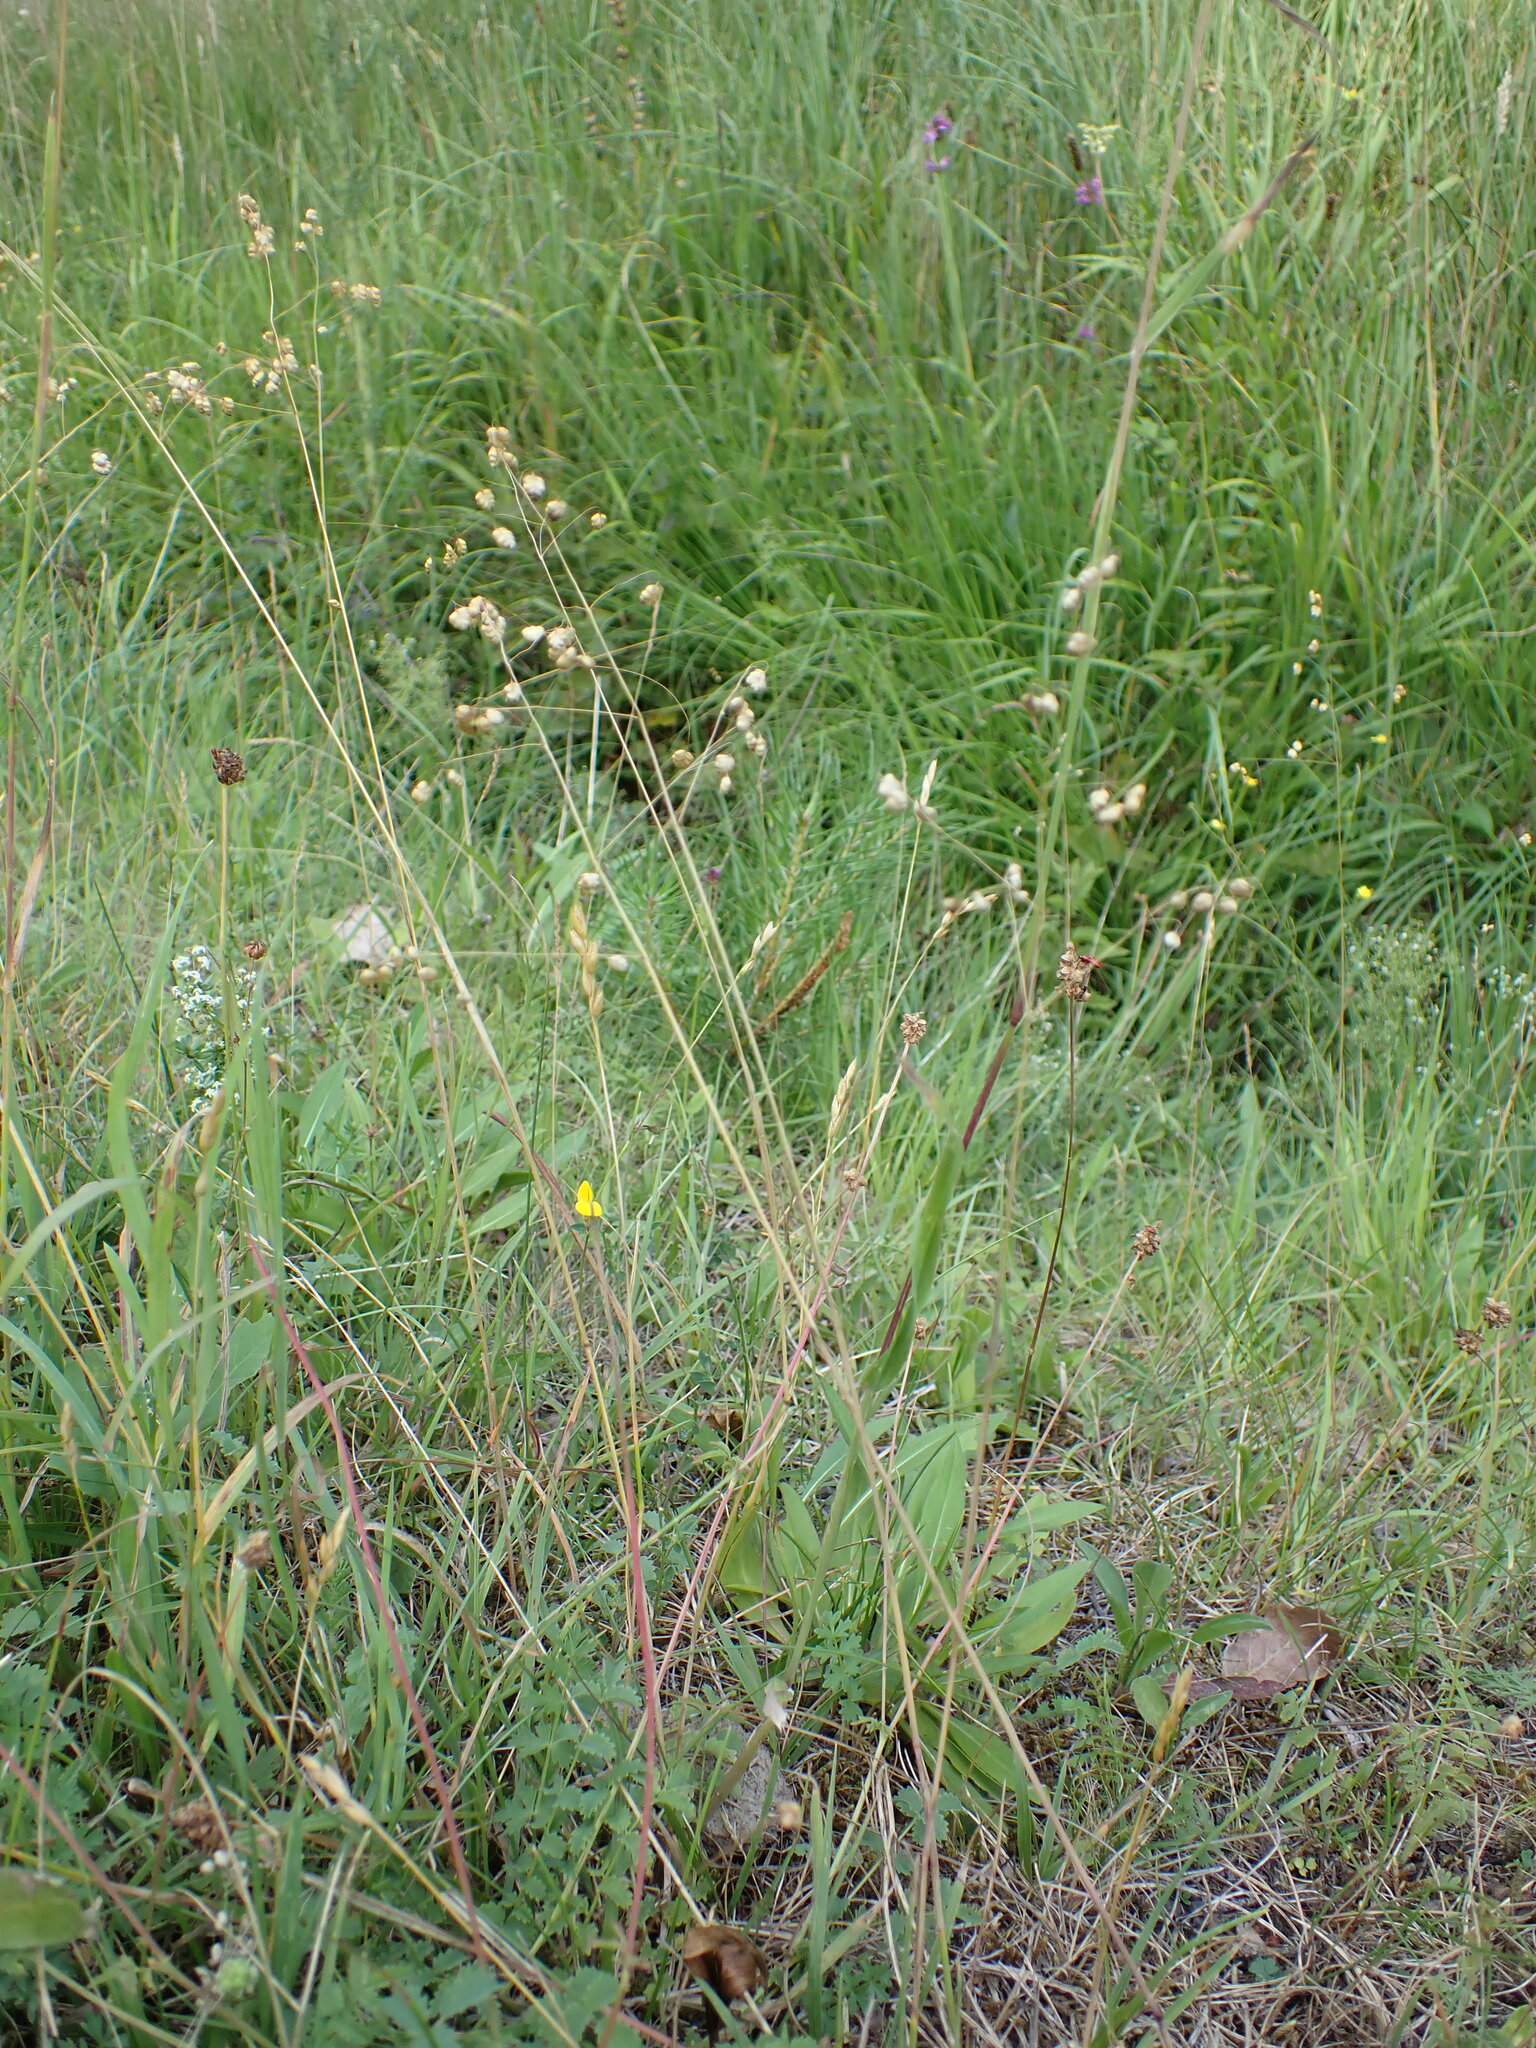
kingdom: Plantae
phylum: Tracheophyta
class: Liliopsida
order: Poales
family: Poaceae
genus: Briza
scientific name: Briza media
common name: Quaking grass
